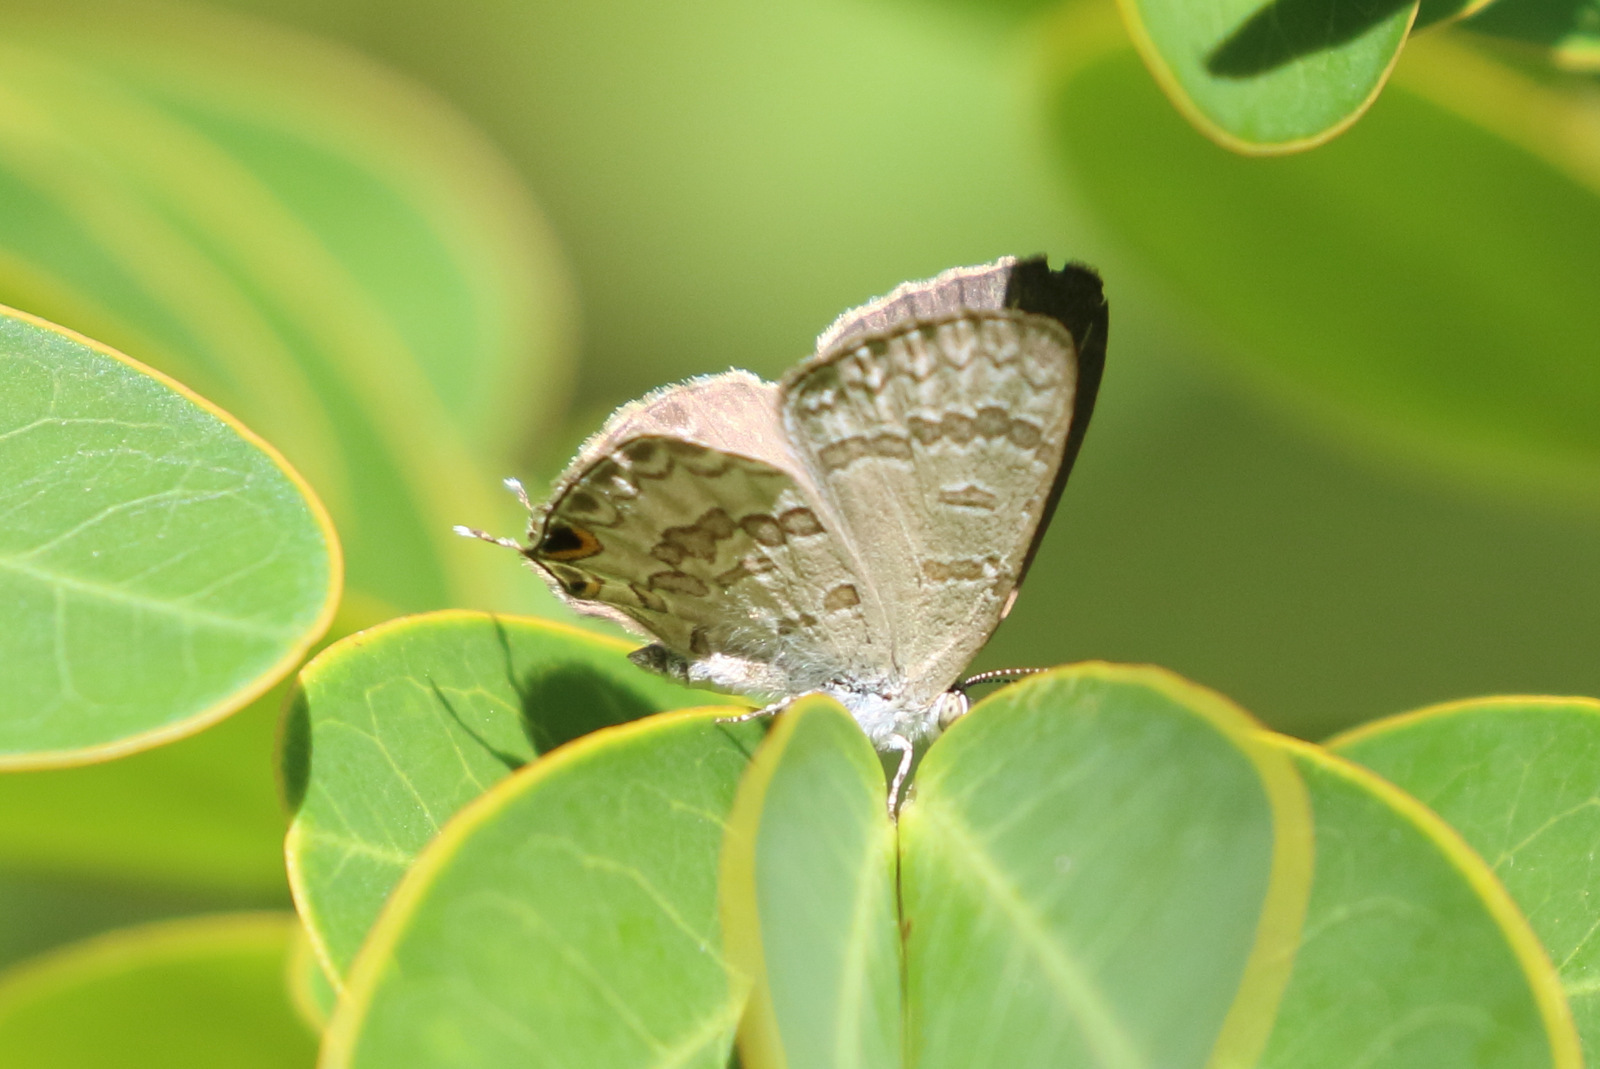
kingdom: Animalia
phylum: Arthropoda
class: Insecta
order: Lepidoptera
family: Lycaenidae
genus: Catopyrops
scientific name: Catopyrops florinda
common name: Speckled line-blue
